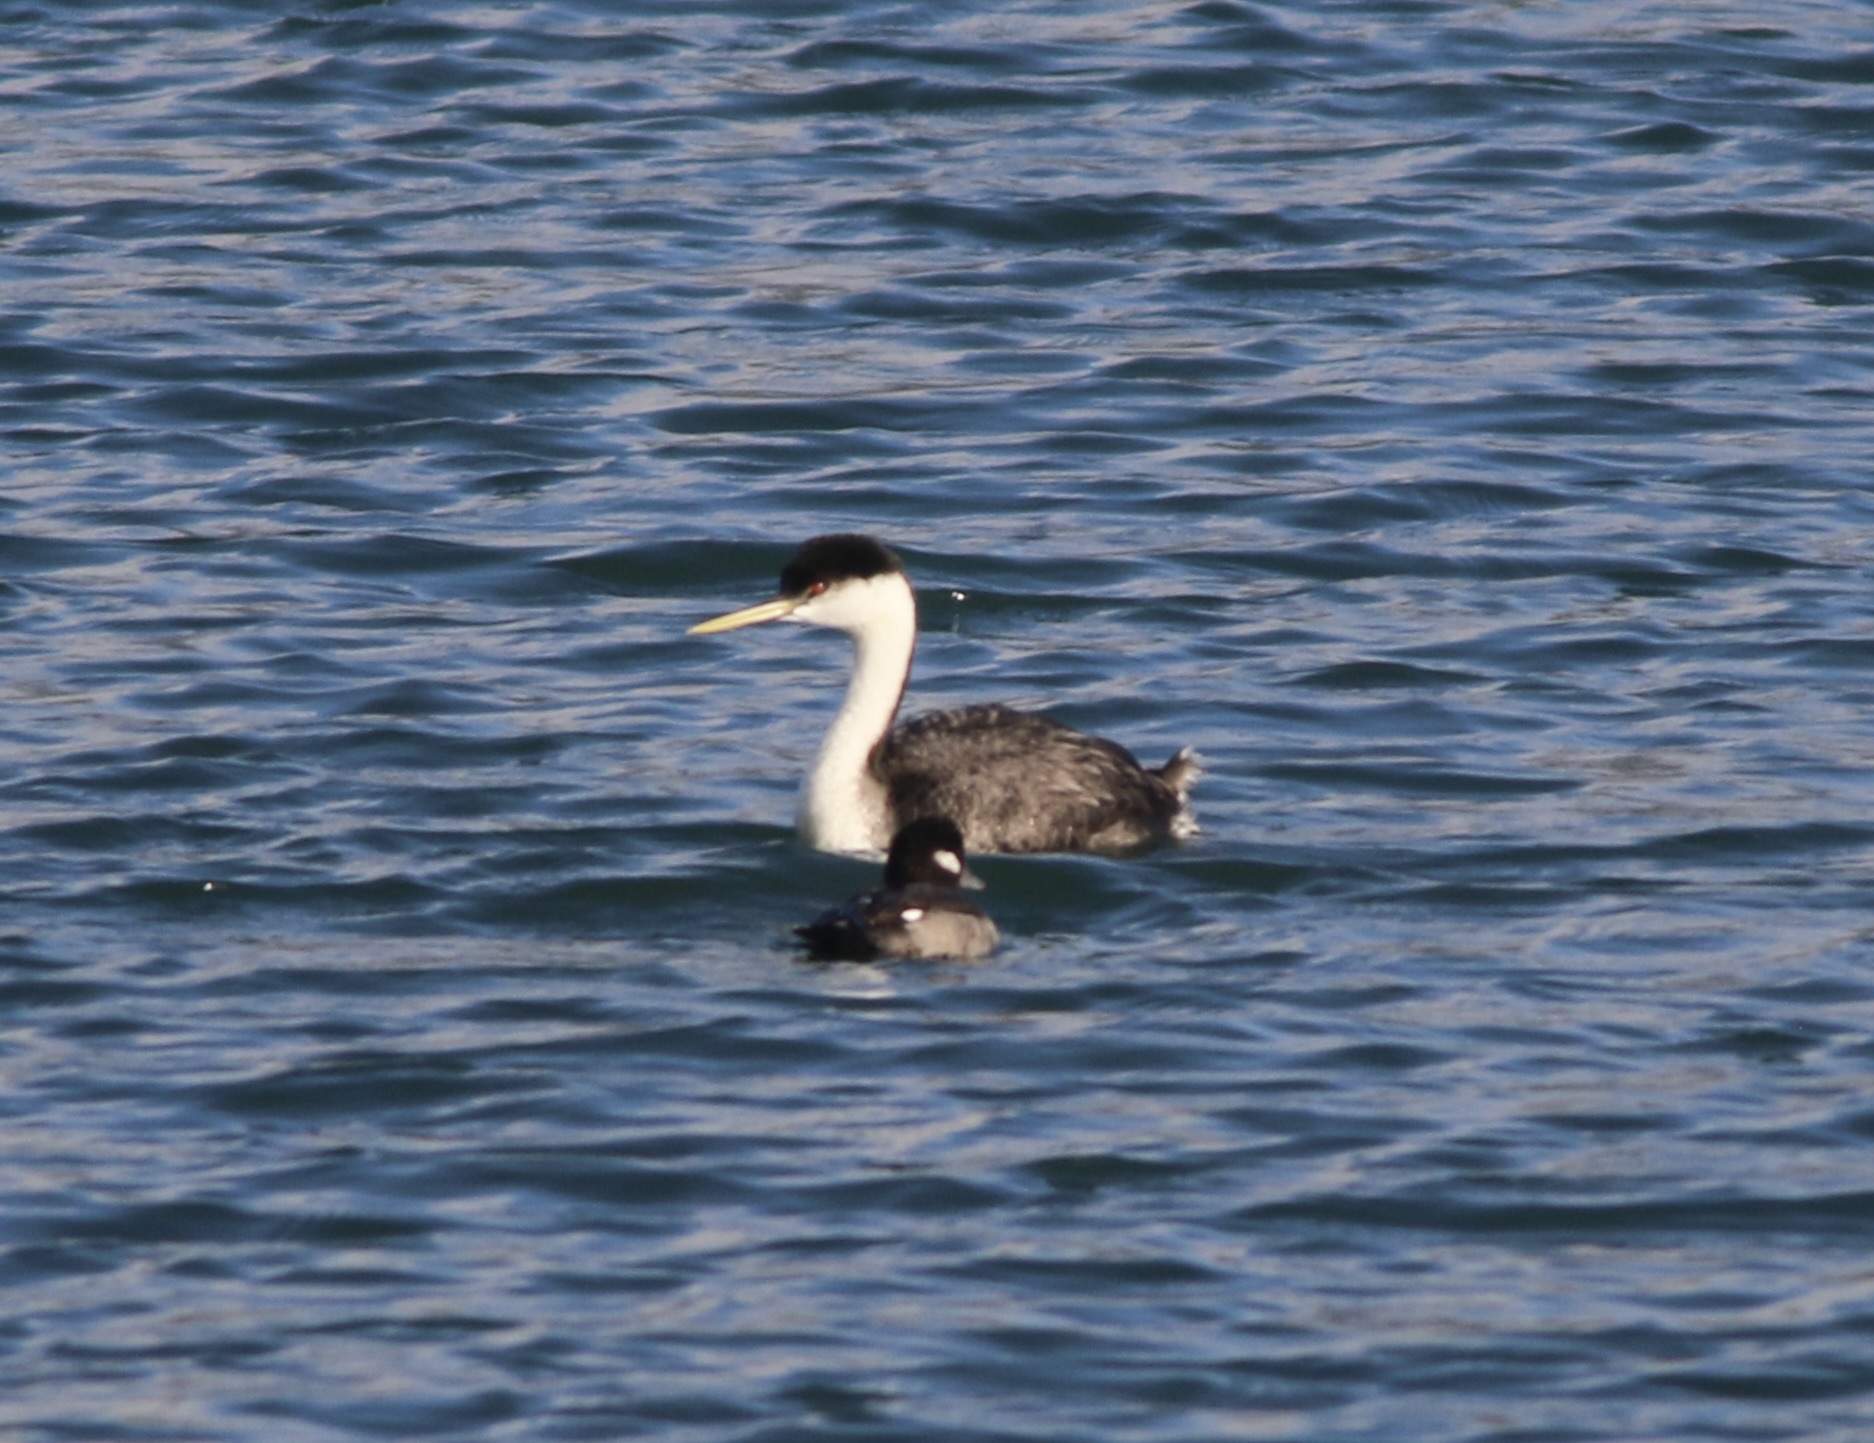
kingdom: Animalia
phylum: Chordata
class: Aves
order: Podicipediformes
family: Podicipedidae
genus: Aechmophorus
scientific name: Aechmophorus occidentalis
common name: Western grebe
